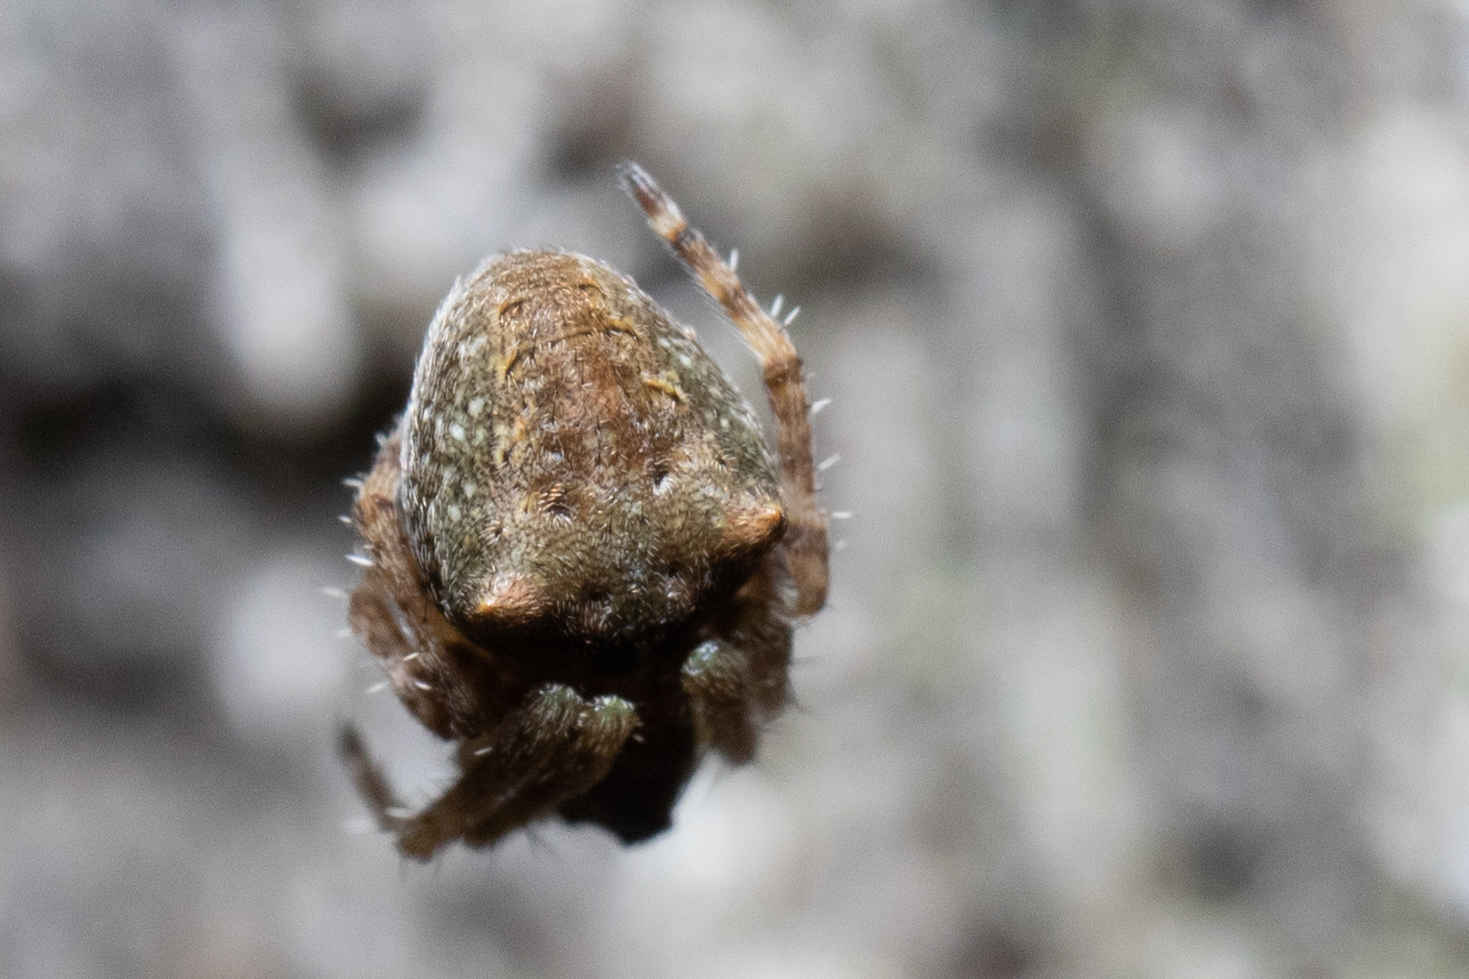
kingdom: Animalia
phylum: Arthropoda
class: Arachnida
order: Araneae
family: Araneidae
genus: Gibbaranea
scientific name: Gibbaranea gibbosa
